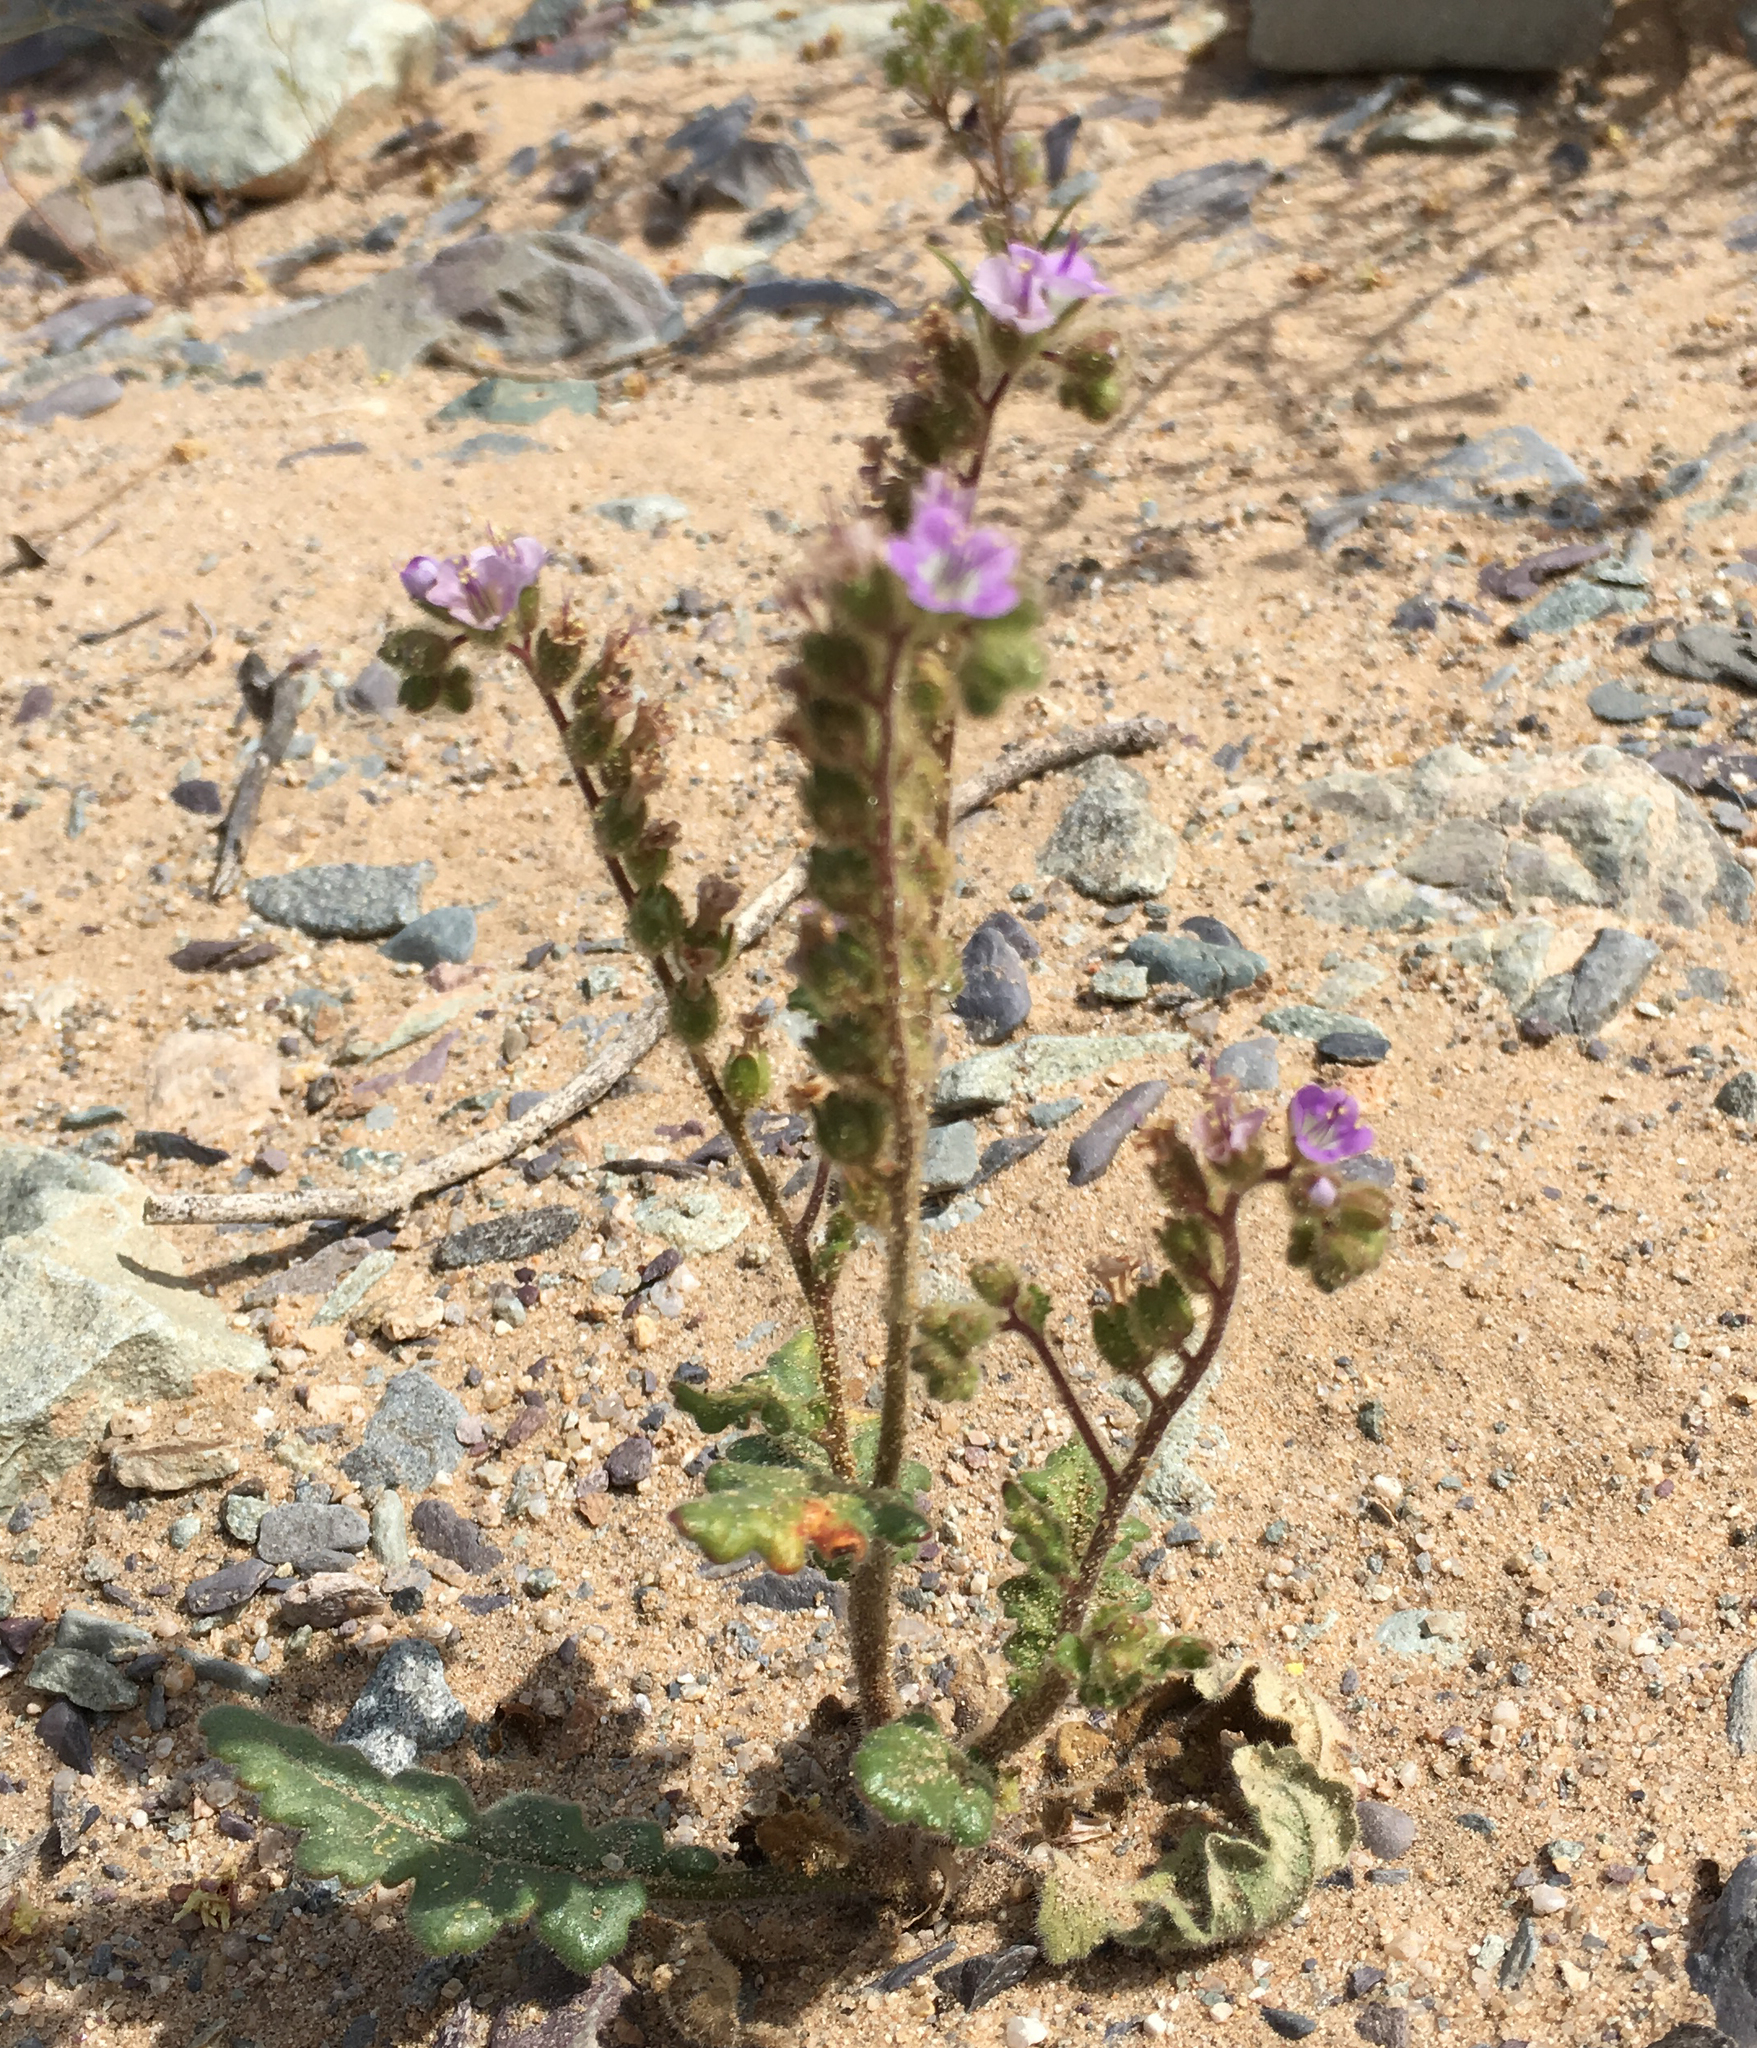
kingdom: Plantae
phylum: Tracheophyta
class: Magnoliopsida
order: Boraginales
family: Hydrophyllaceae
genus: Phacelia
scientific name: Phacelia crenulata
